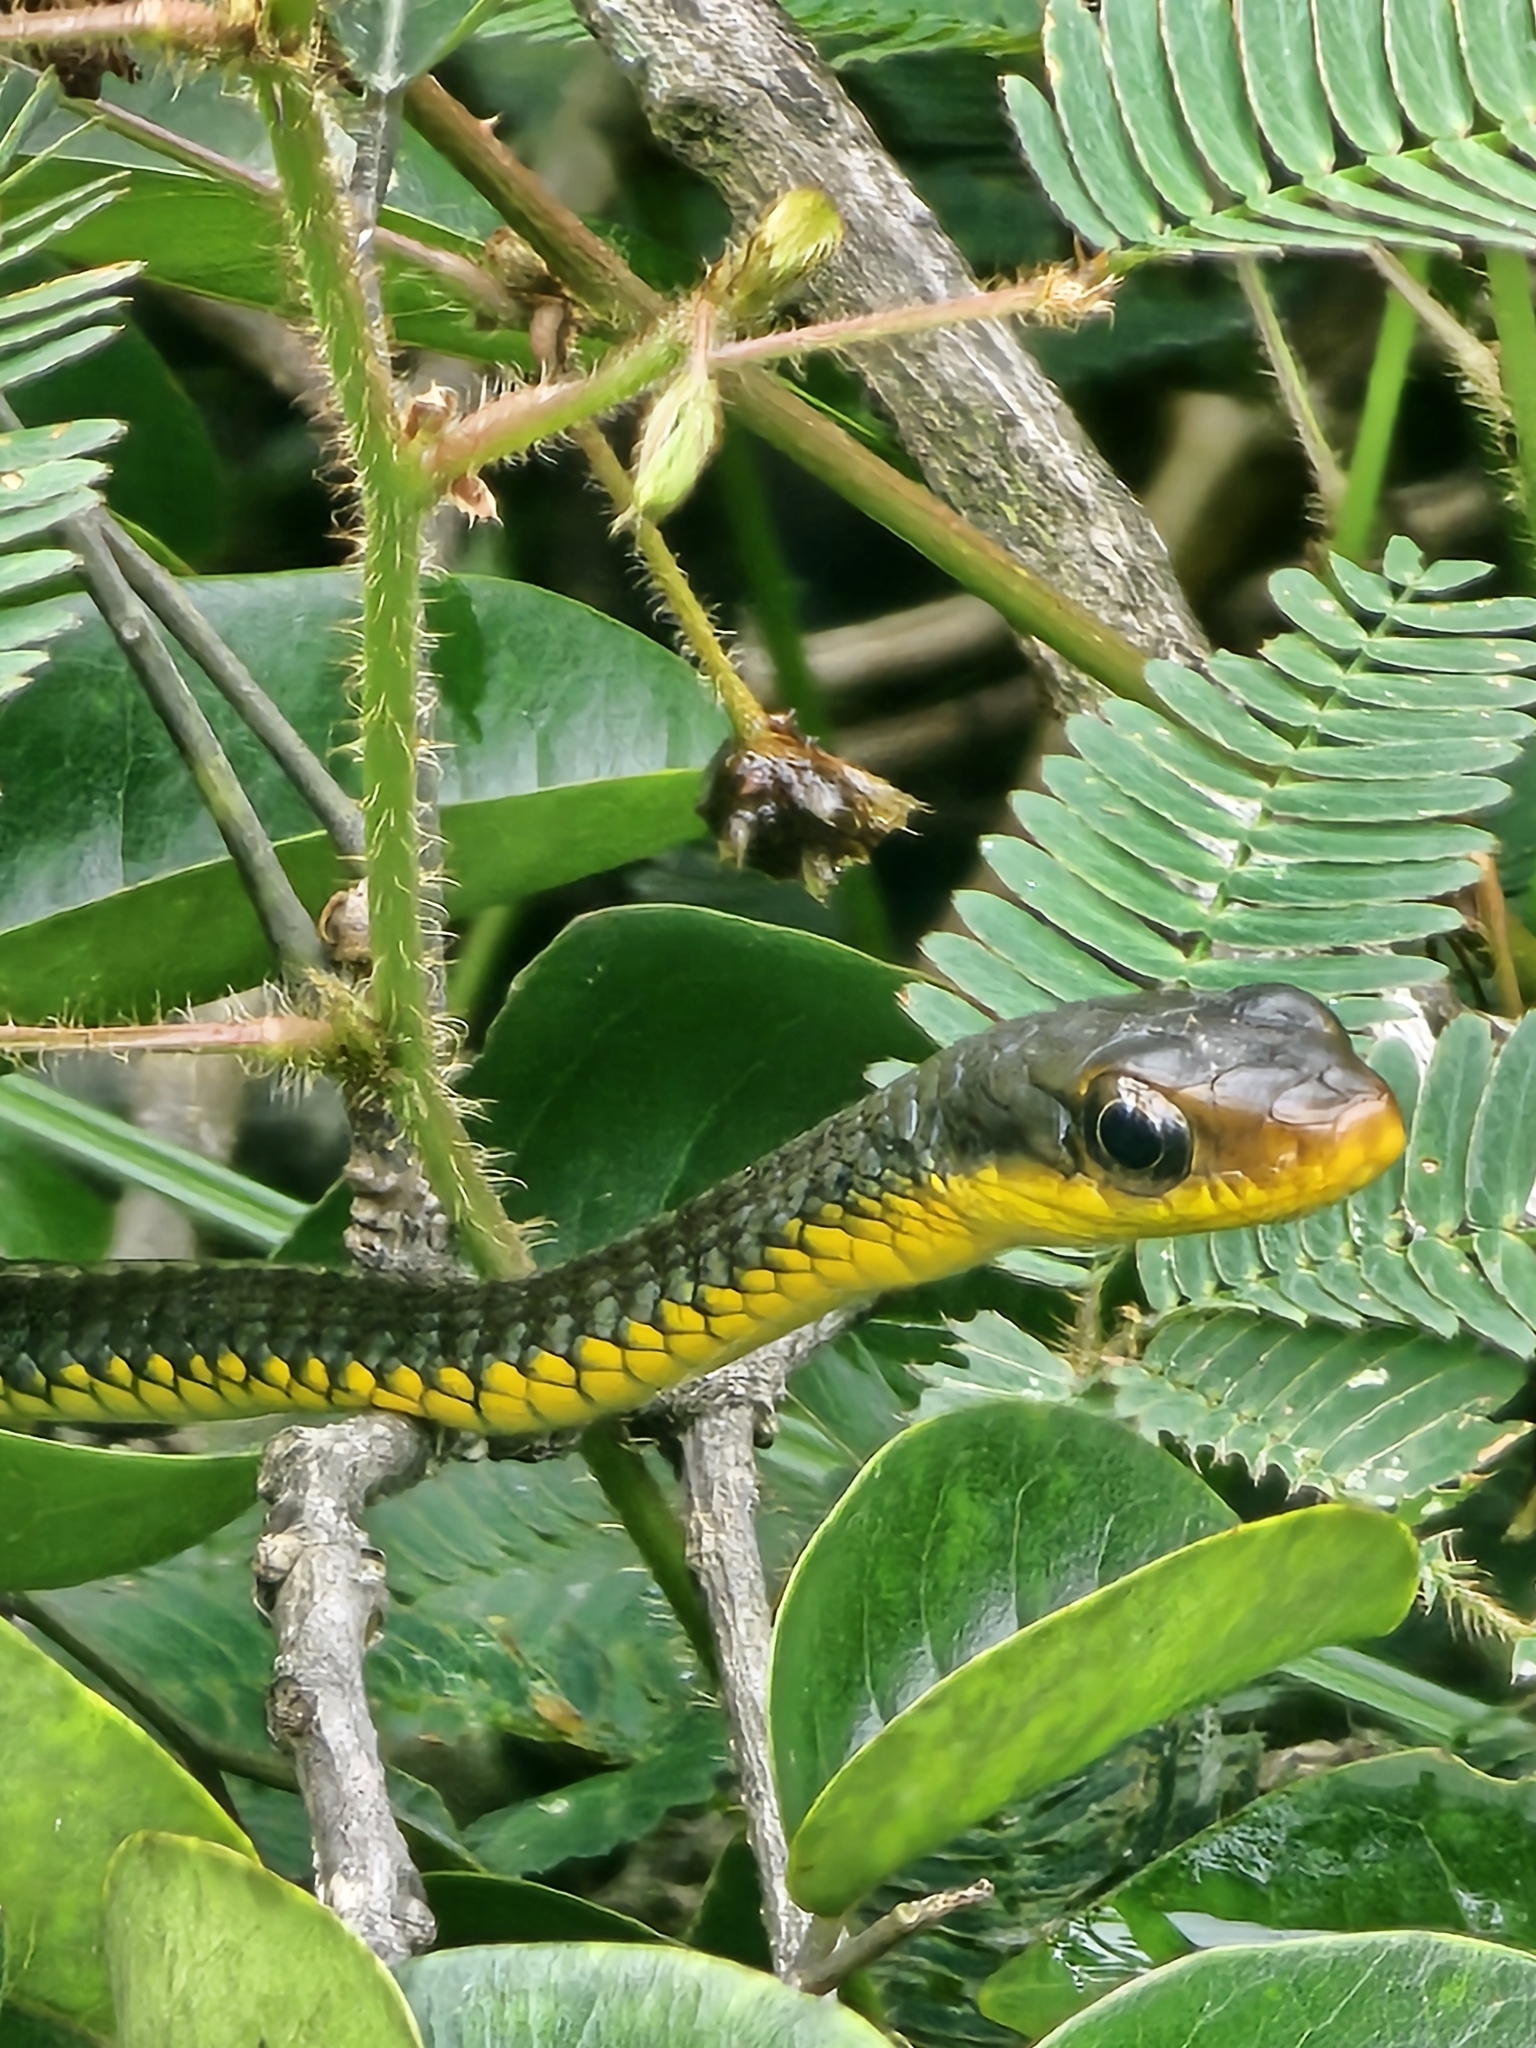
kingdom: Animalia
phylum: Chordata
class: Squamata
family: Colubridae
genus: Chironius
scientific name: Chironius carinatus
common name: Sipo
